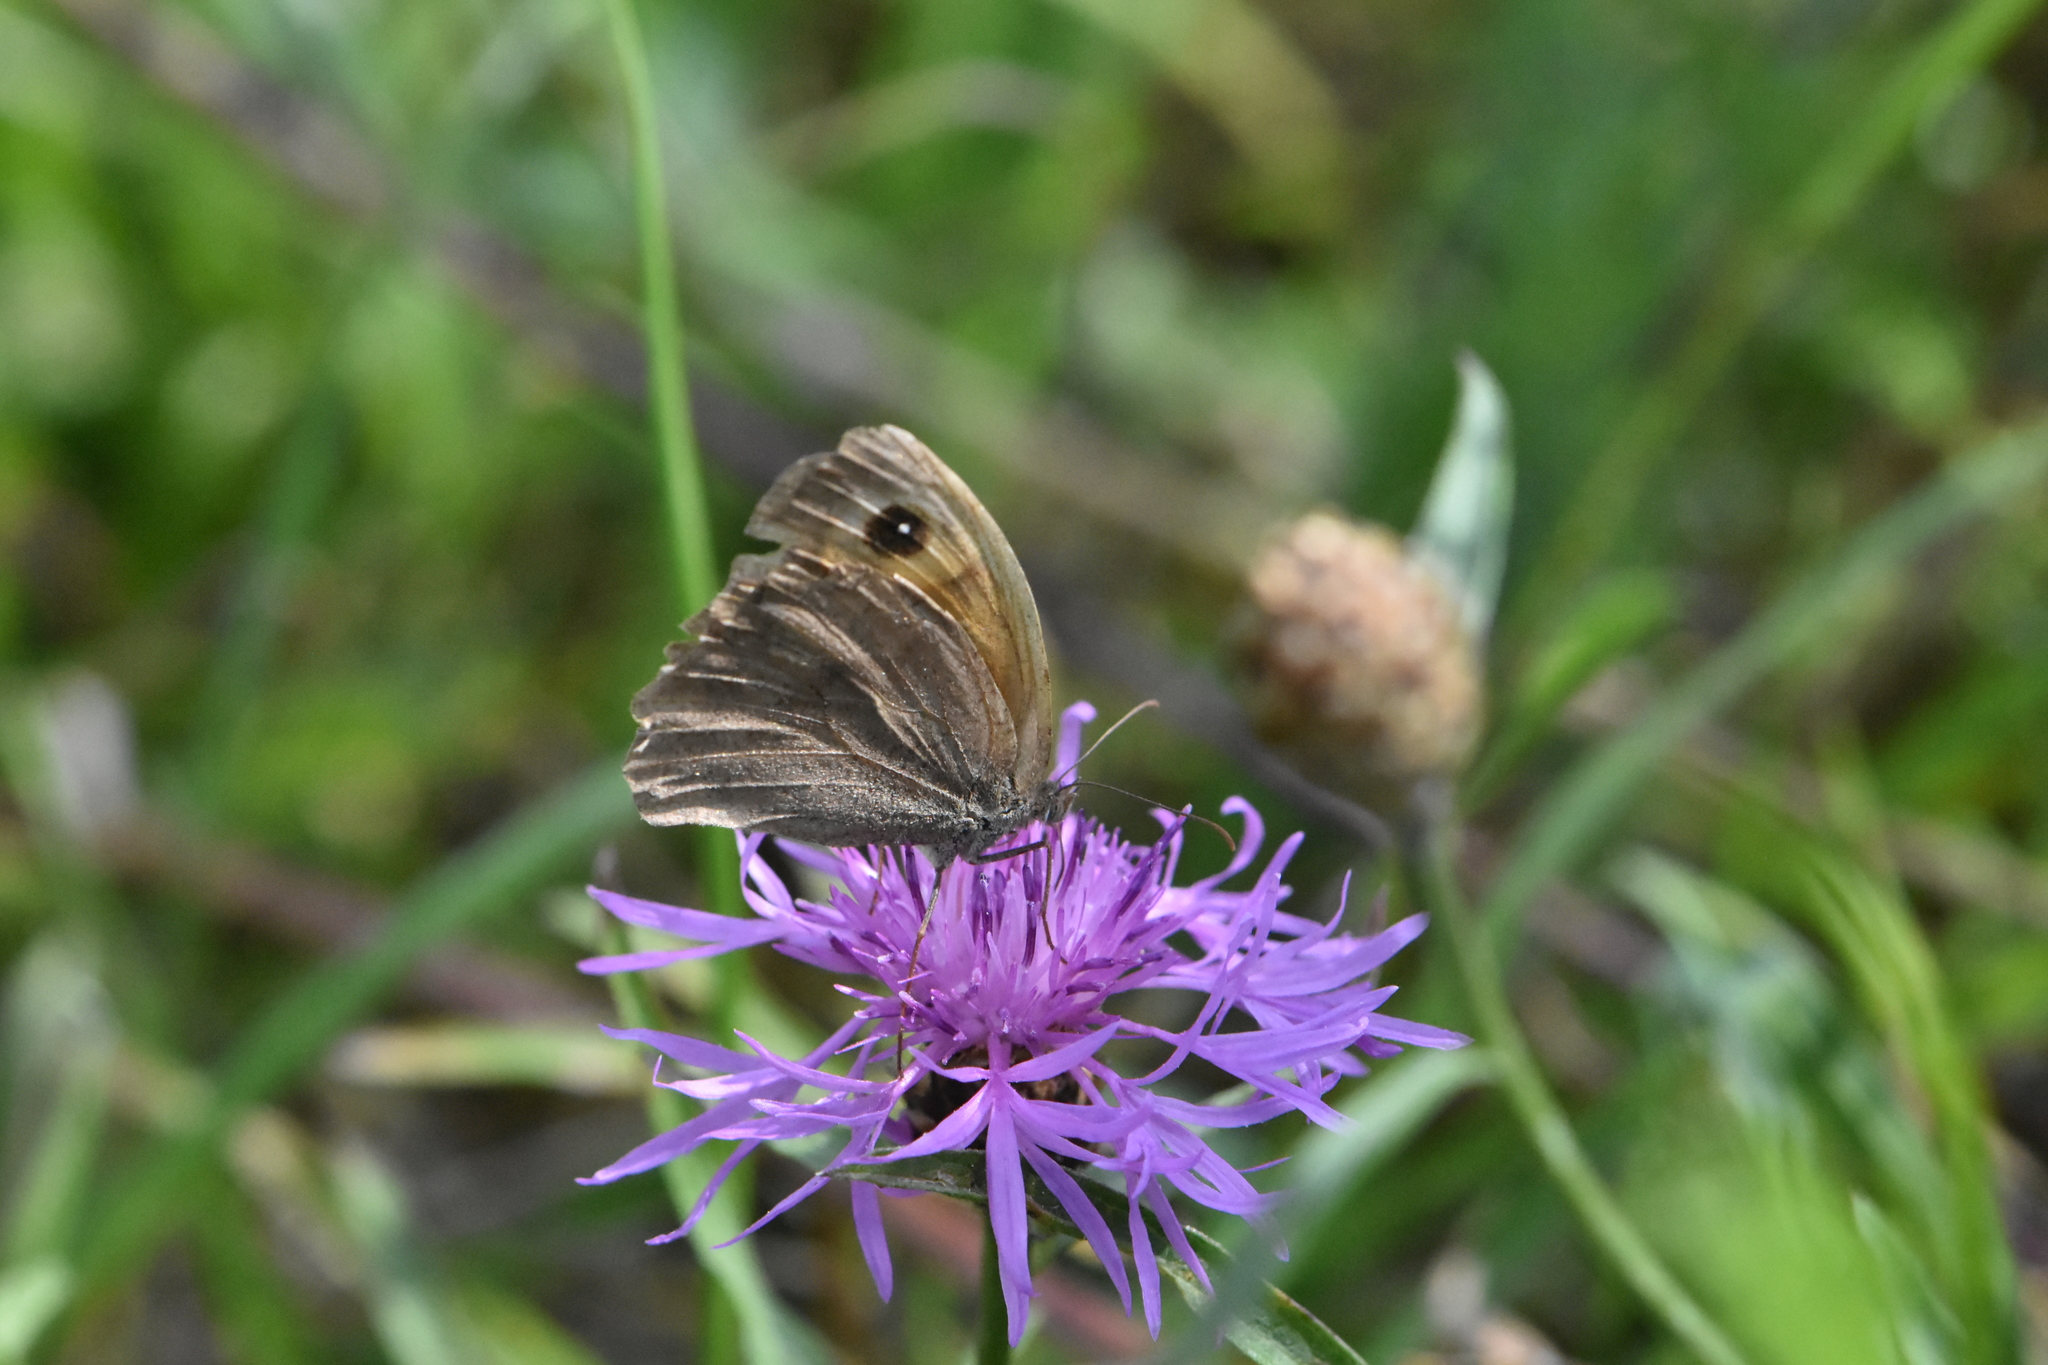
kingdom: Animalia
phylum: Arthropoda
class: Insecta
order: Lepidoptera
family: Nymphalidae
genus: Maniola
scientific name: Maniola jurtina
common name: Meadow brown
